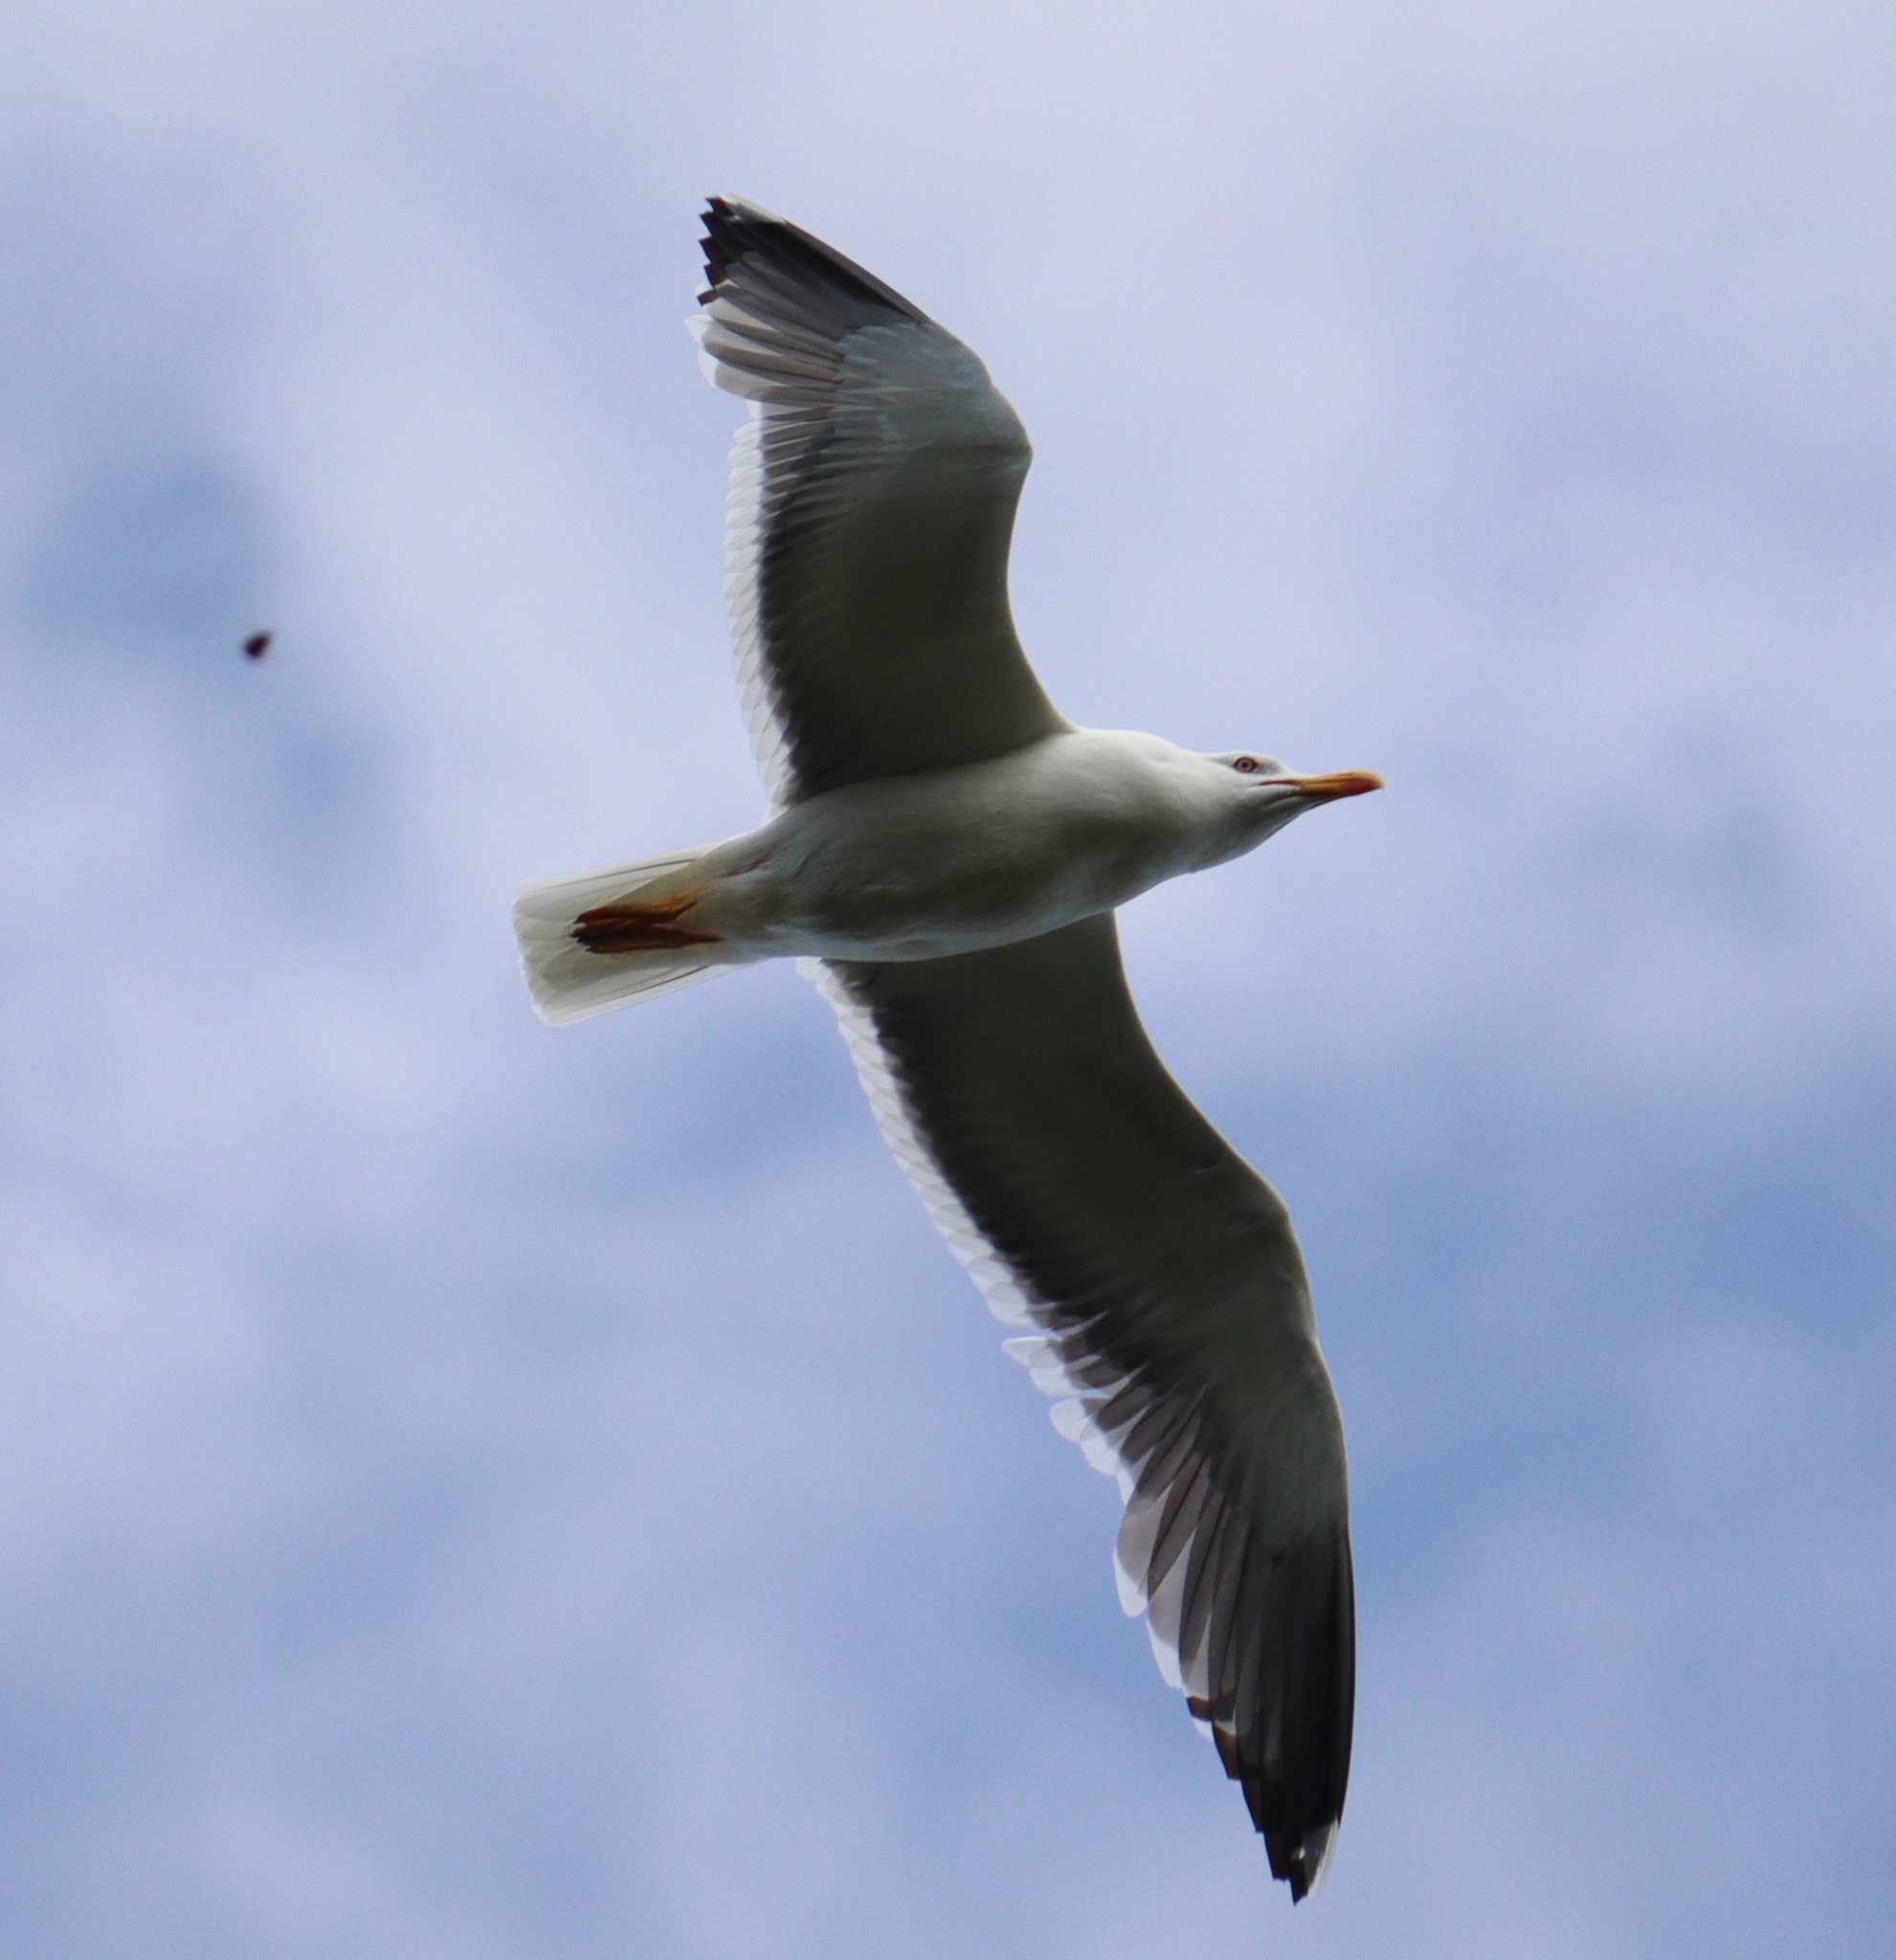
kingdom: Animalia
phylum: Chordata
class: Aves
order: Charadriiformes
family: Laridae
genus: Larus
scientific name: Larus fuscus
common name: Lesser black-backed gull
